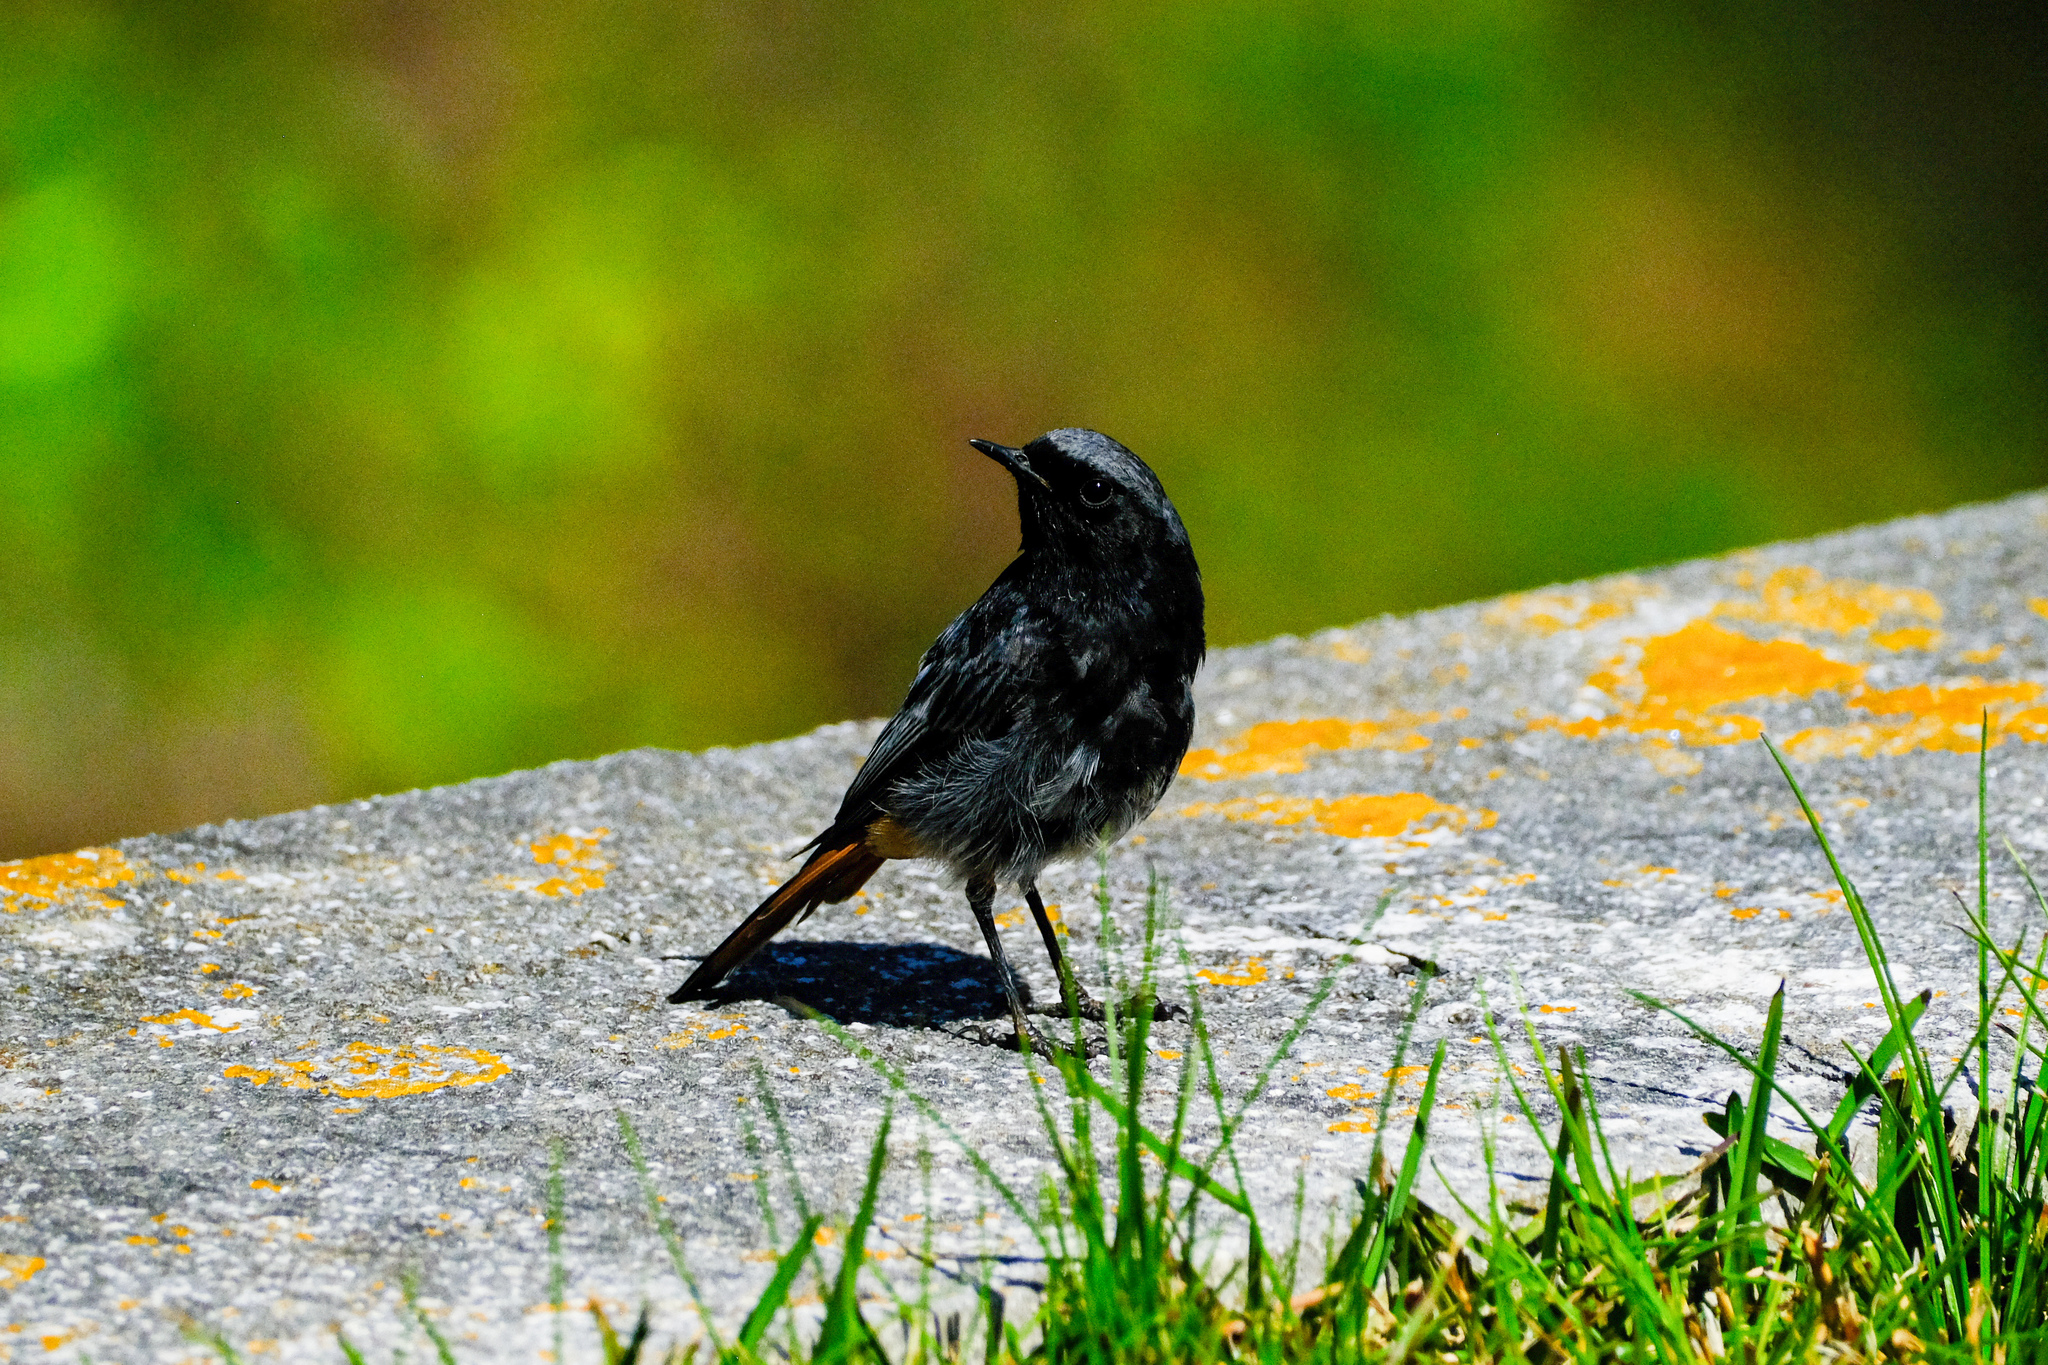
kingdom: Animalia
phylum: Chordata
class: Aves
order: Passeriformes
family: Muscicapidae
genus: Phoenicurus
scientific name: Phoenicurus ochruros
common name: Black redstart
